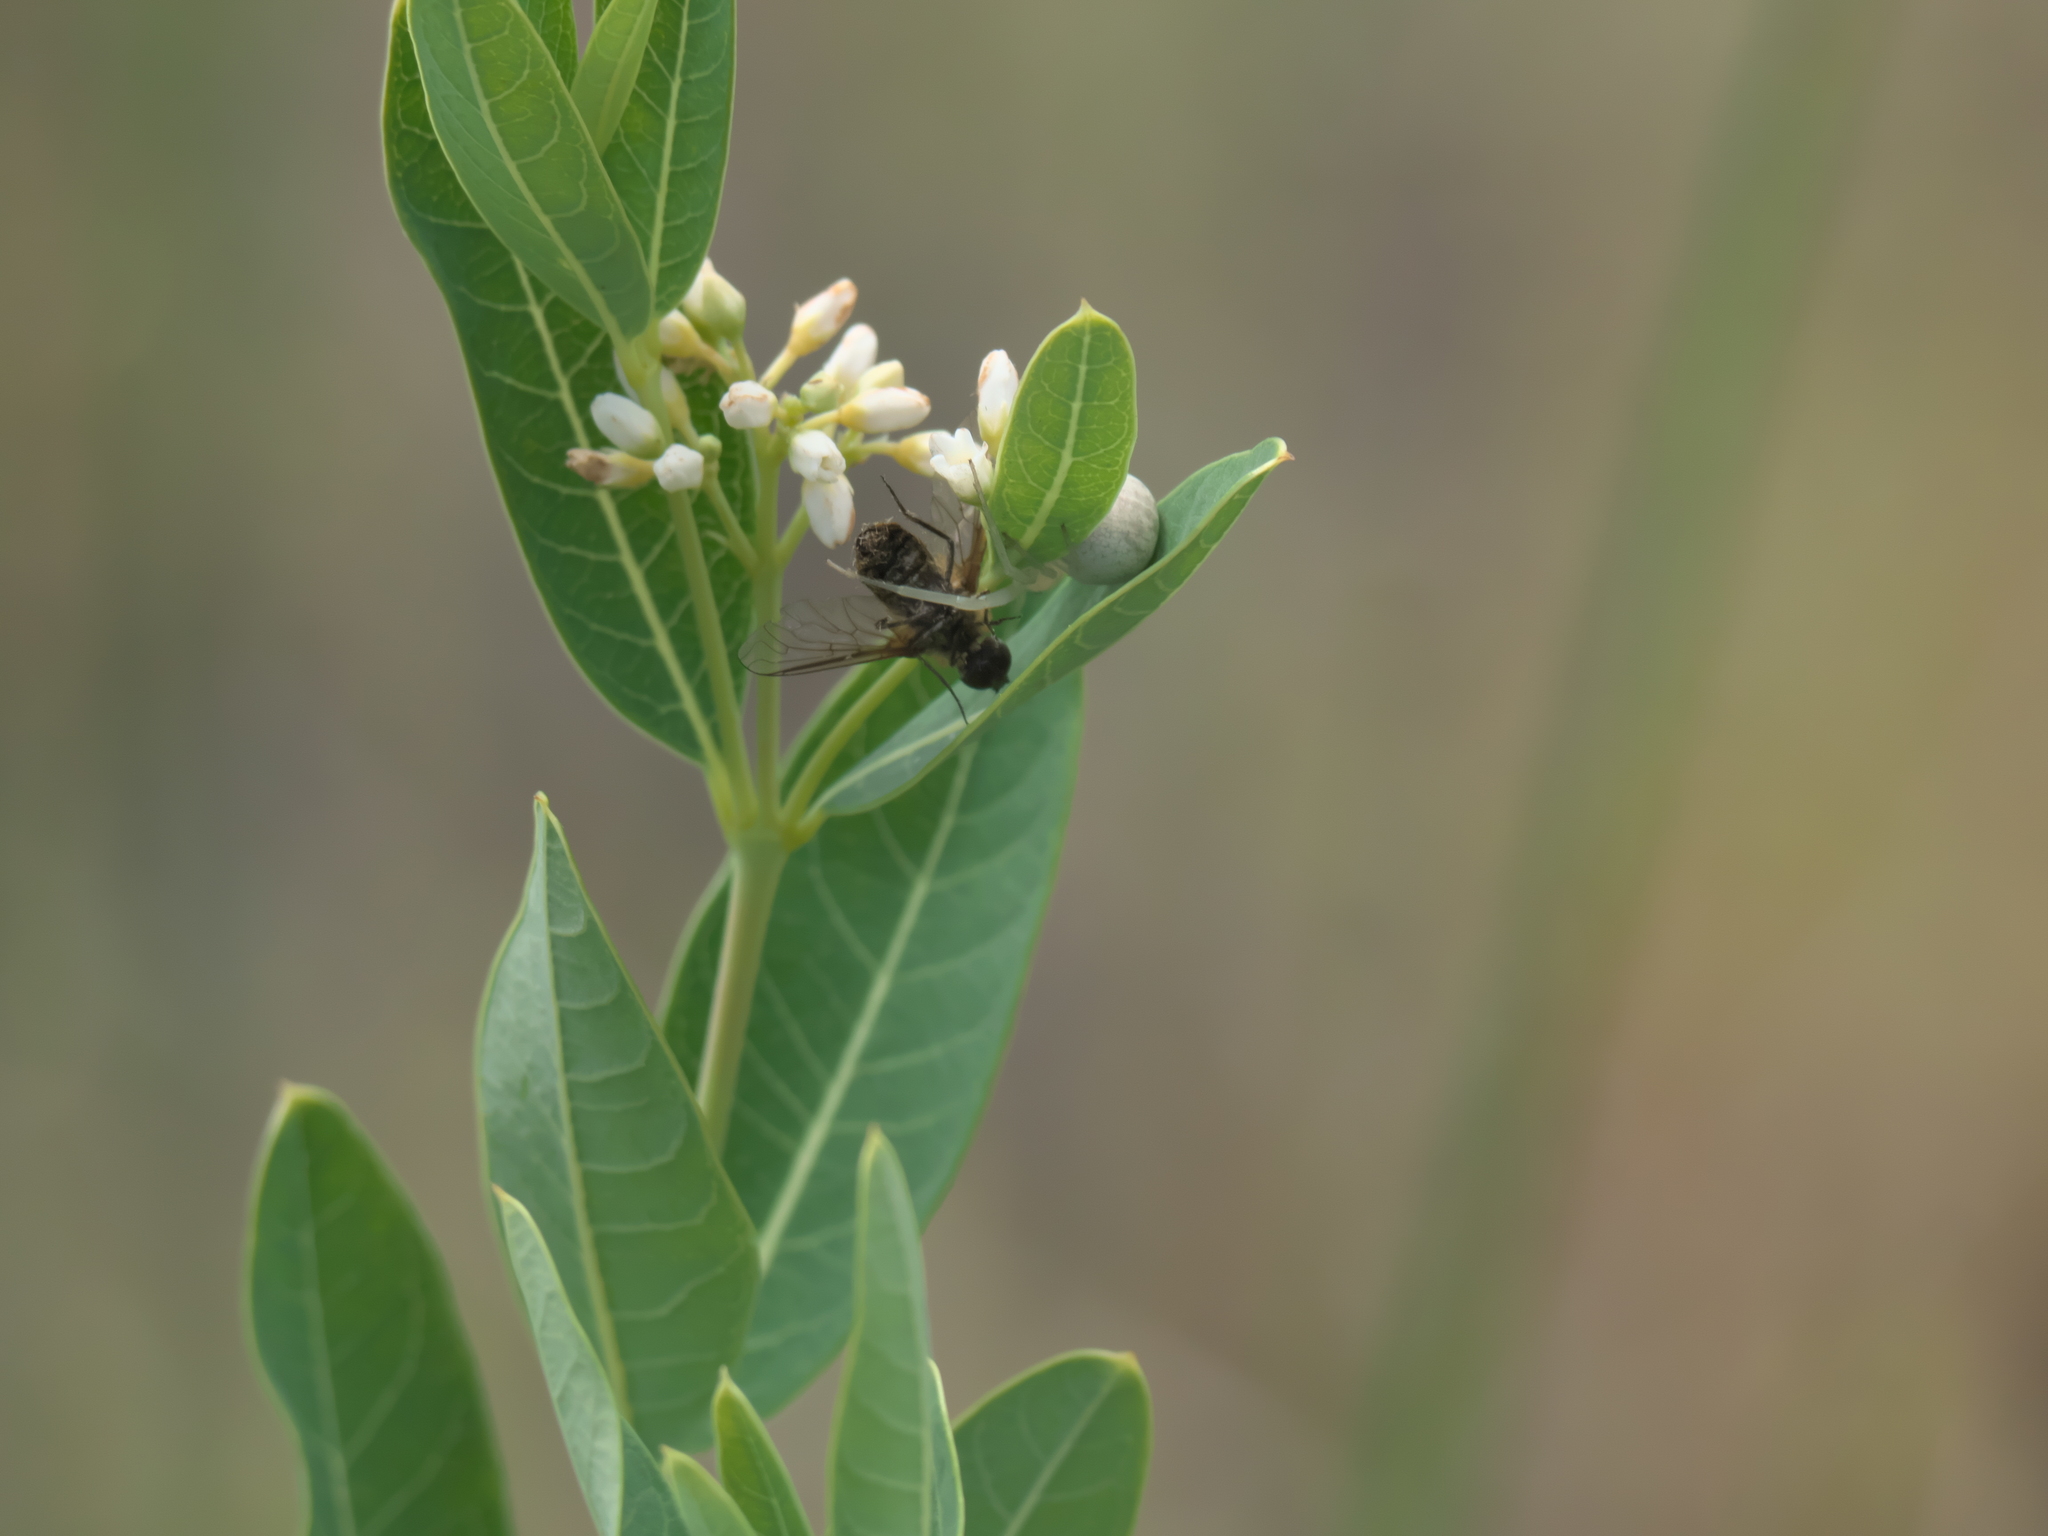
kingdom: Plantae
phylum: Tracheophyta
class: Magnoliopsida
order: Gentianales
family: Apocynaceae
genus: Apocynum
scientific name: Apocynum cannabinum
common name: Hemp dogbane
